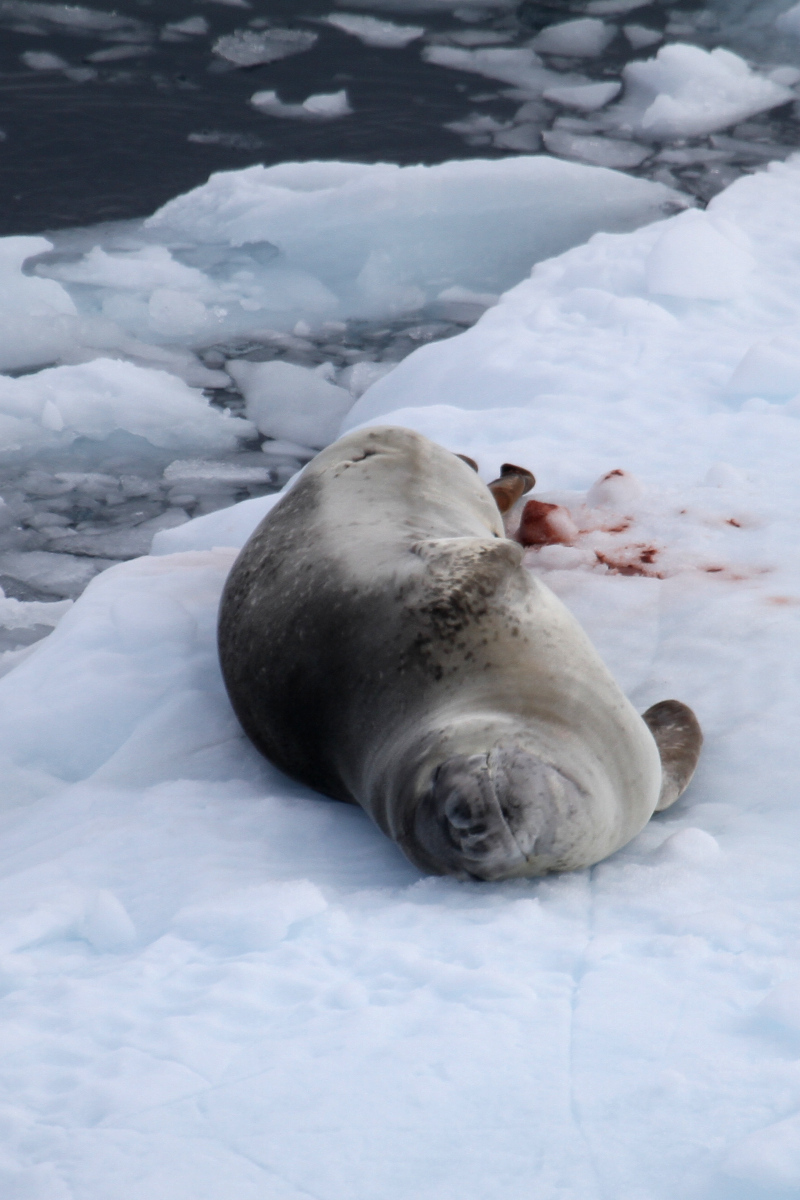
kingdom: Animalia
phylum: Chordata
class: Mammalia
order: Carnivora
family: Phocidae
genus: Hydrurga
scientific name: Hydrurga leptonyx
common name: Leopard seal
